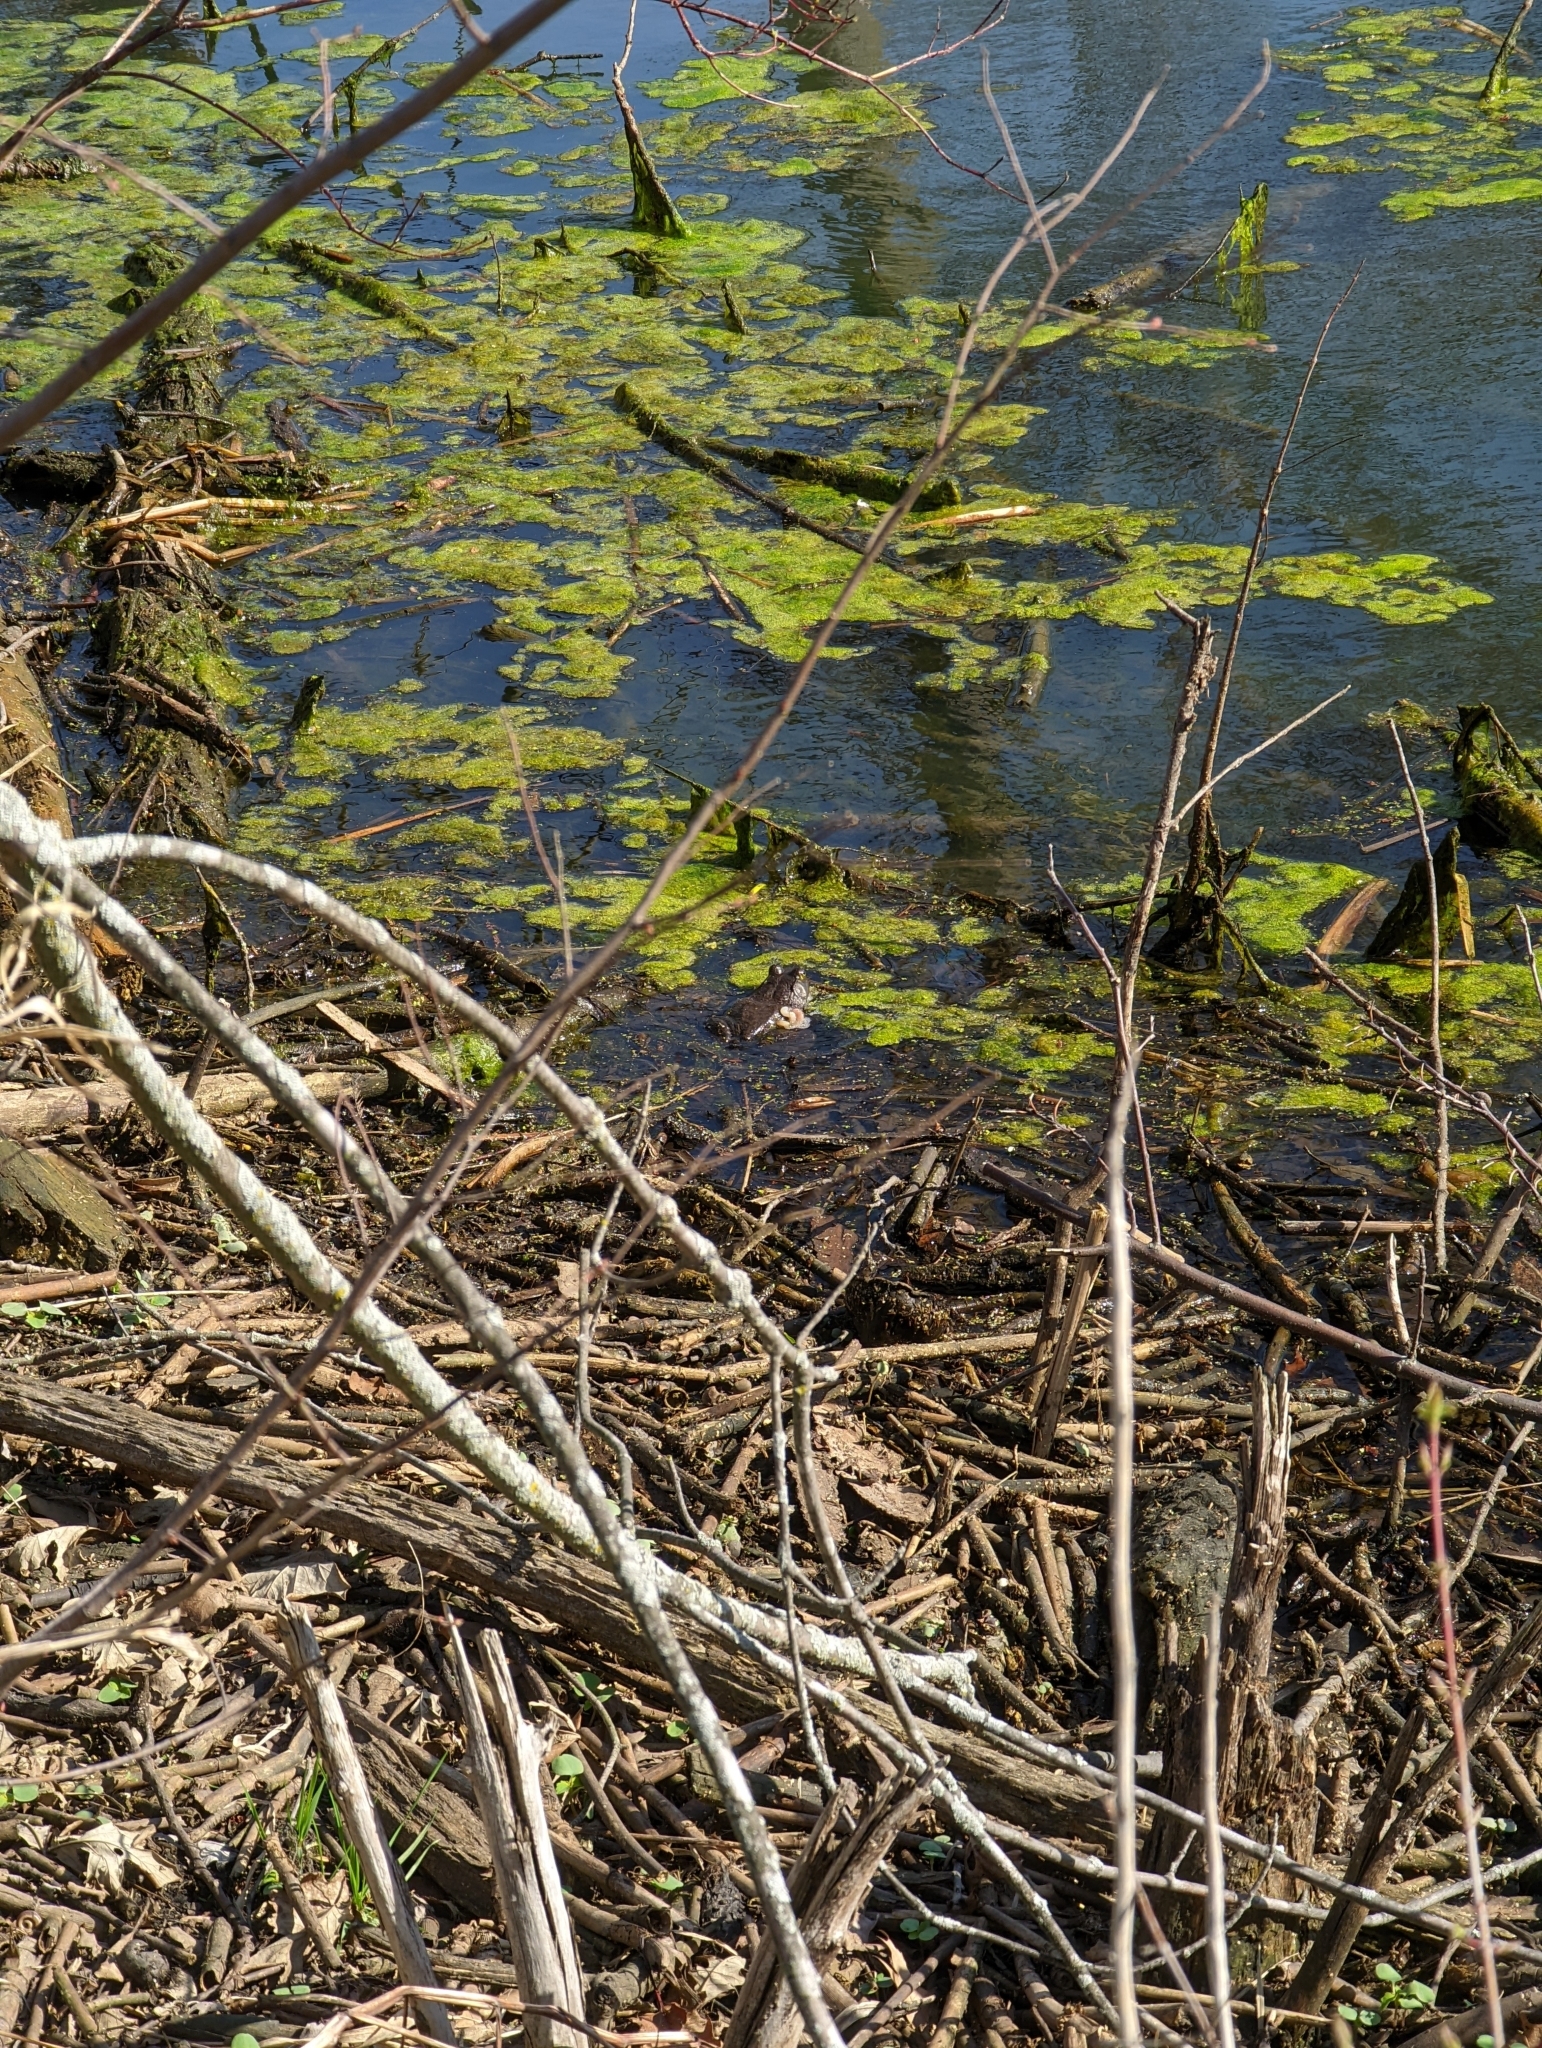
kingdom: Animalia
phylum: Chordata
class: Amphibia
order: Anura
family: Ranidae
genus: Lithobates
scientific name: Lithobates catesbeianus
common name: American bullfrog
